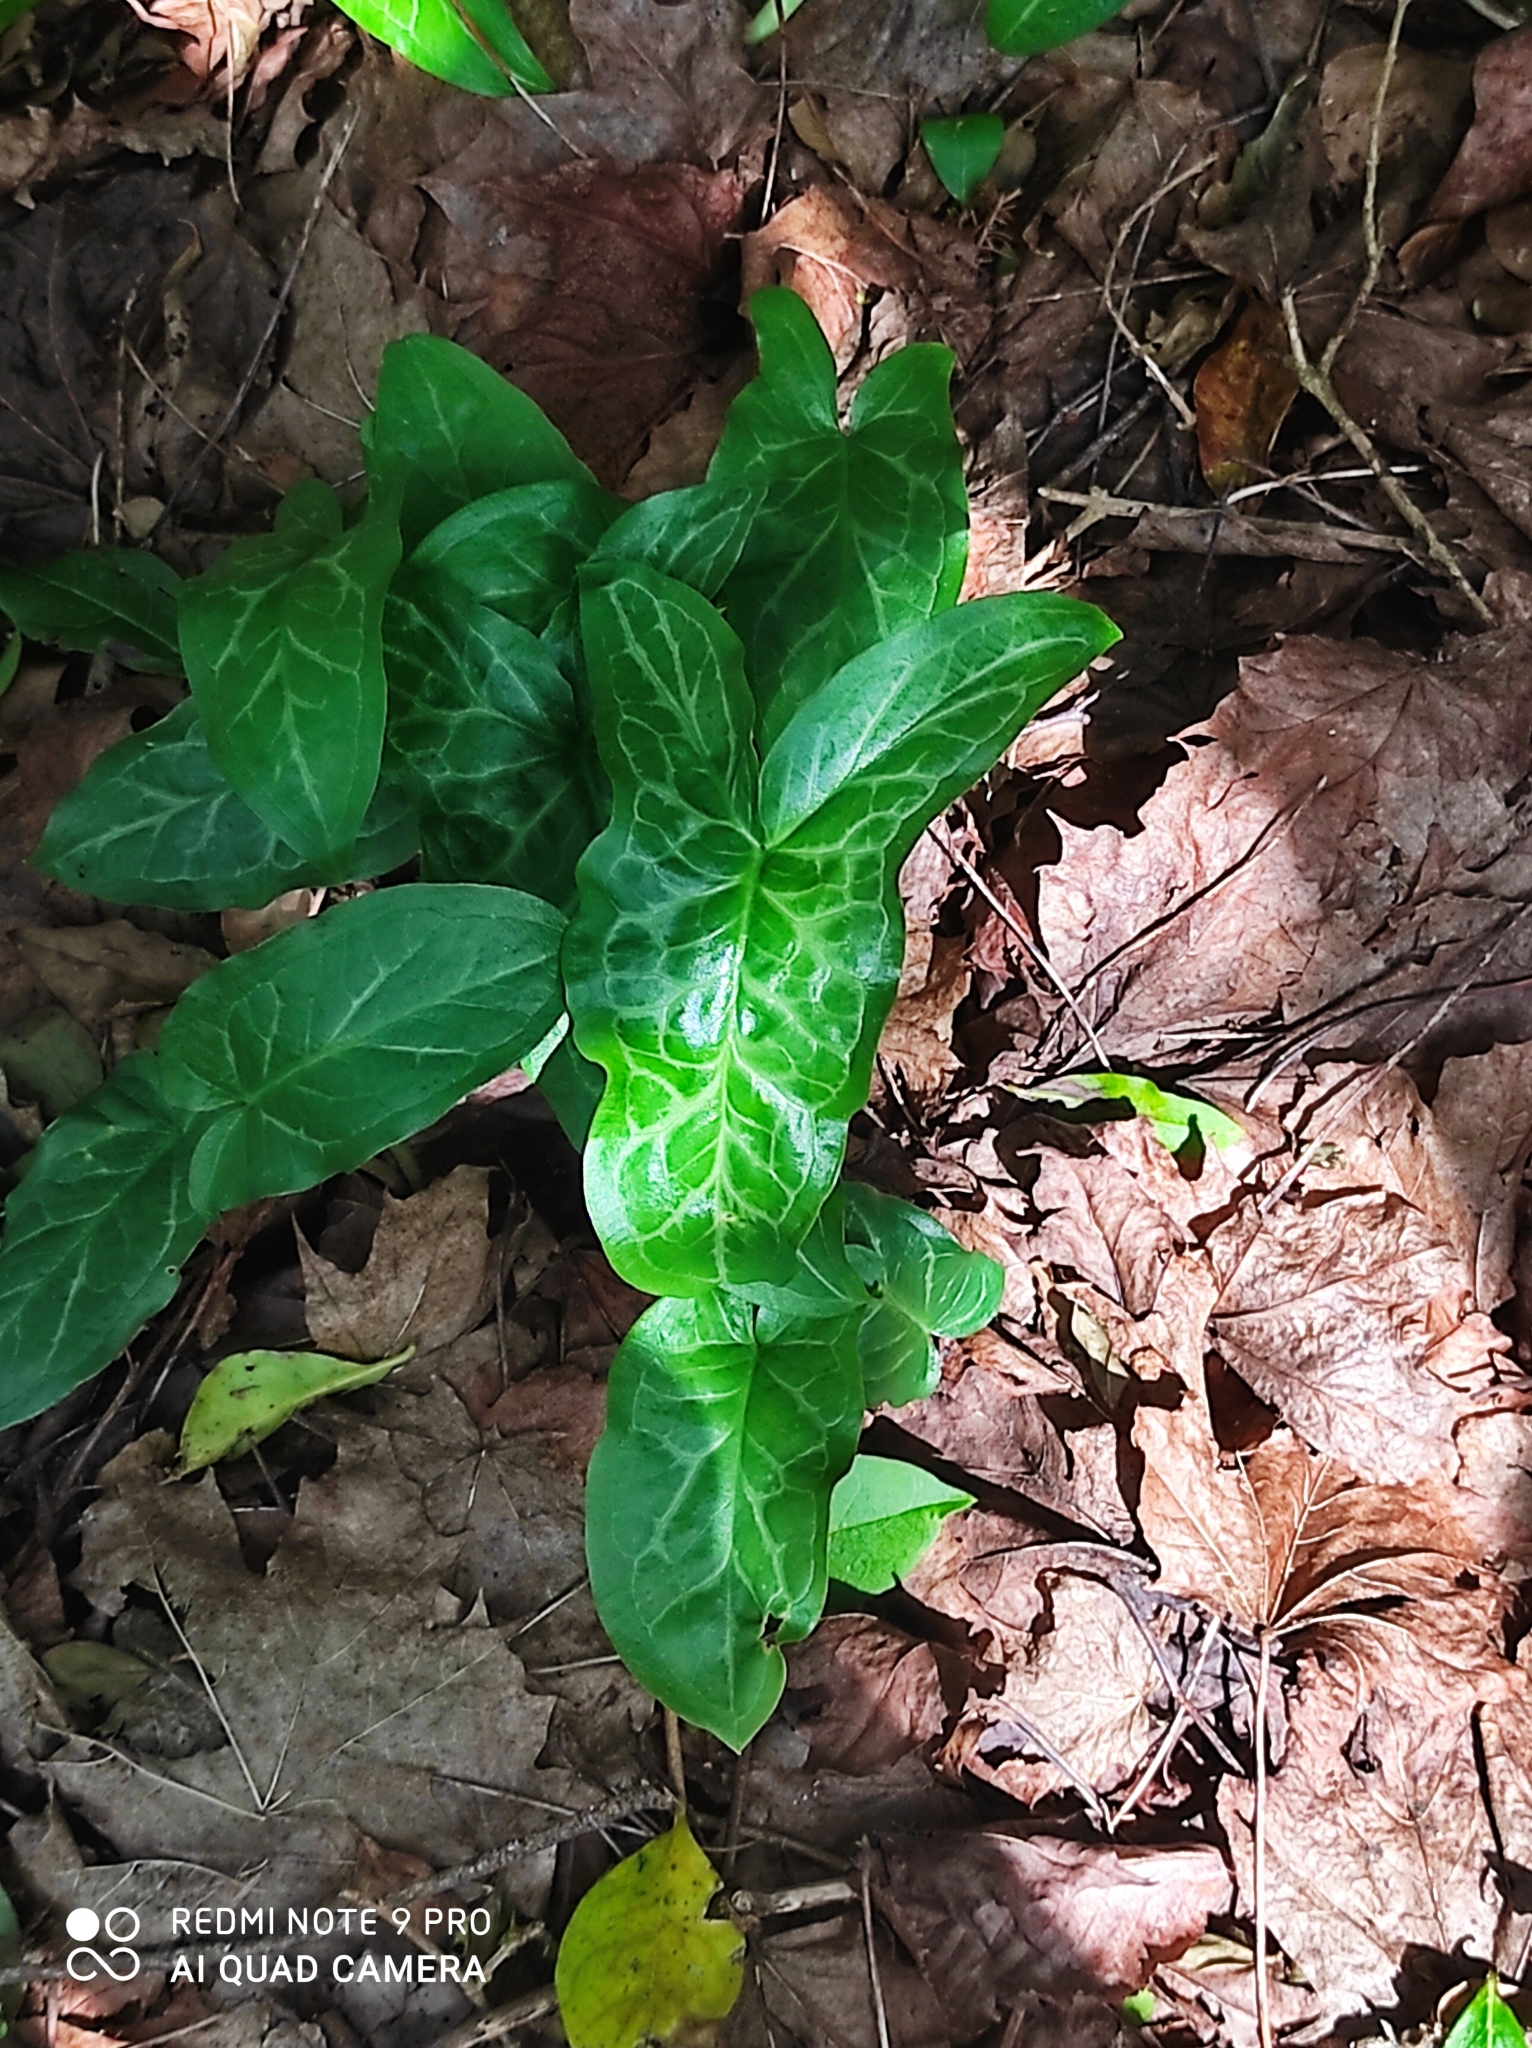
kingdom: Plantae
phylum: Tracheophyta
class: Liliopsida
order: Alismatales
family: Araceae
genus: Arum
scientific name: Arum italicum
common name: Italian lords-and-ladies
